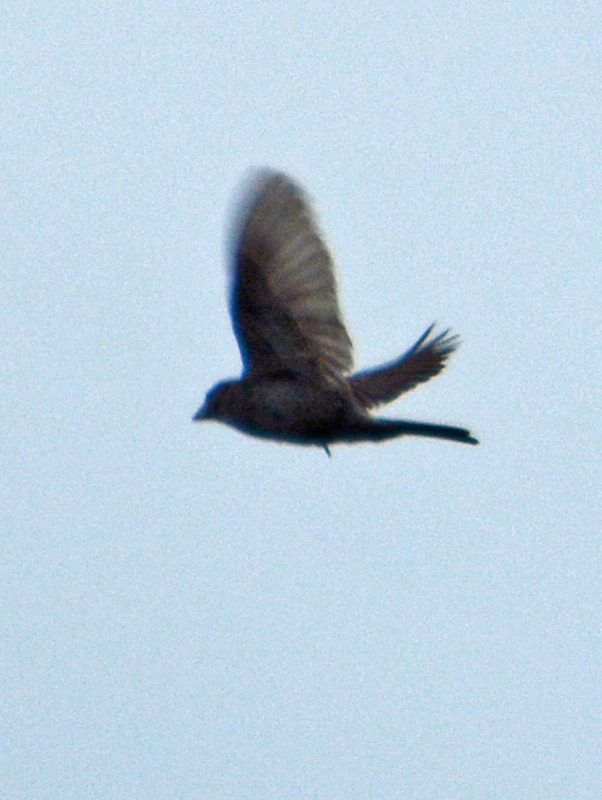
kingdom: Animalia
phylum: Chordata
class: Aves
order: Passeriformes
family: Fringillidae
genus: Haemorhous
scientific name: Haemorhous mexicanus
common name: House finch
